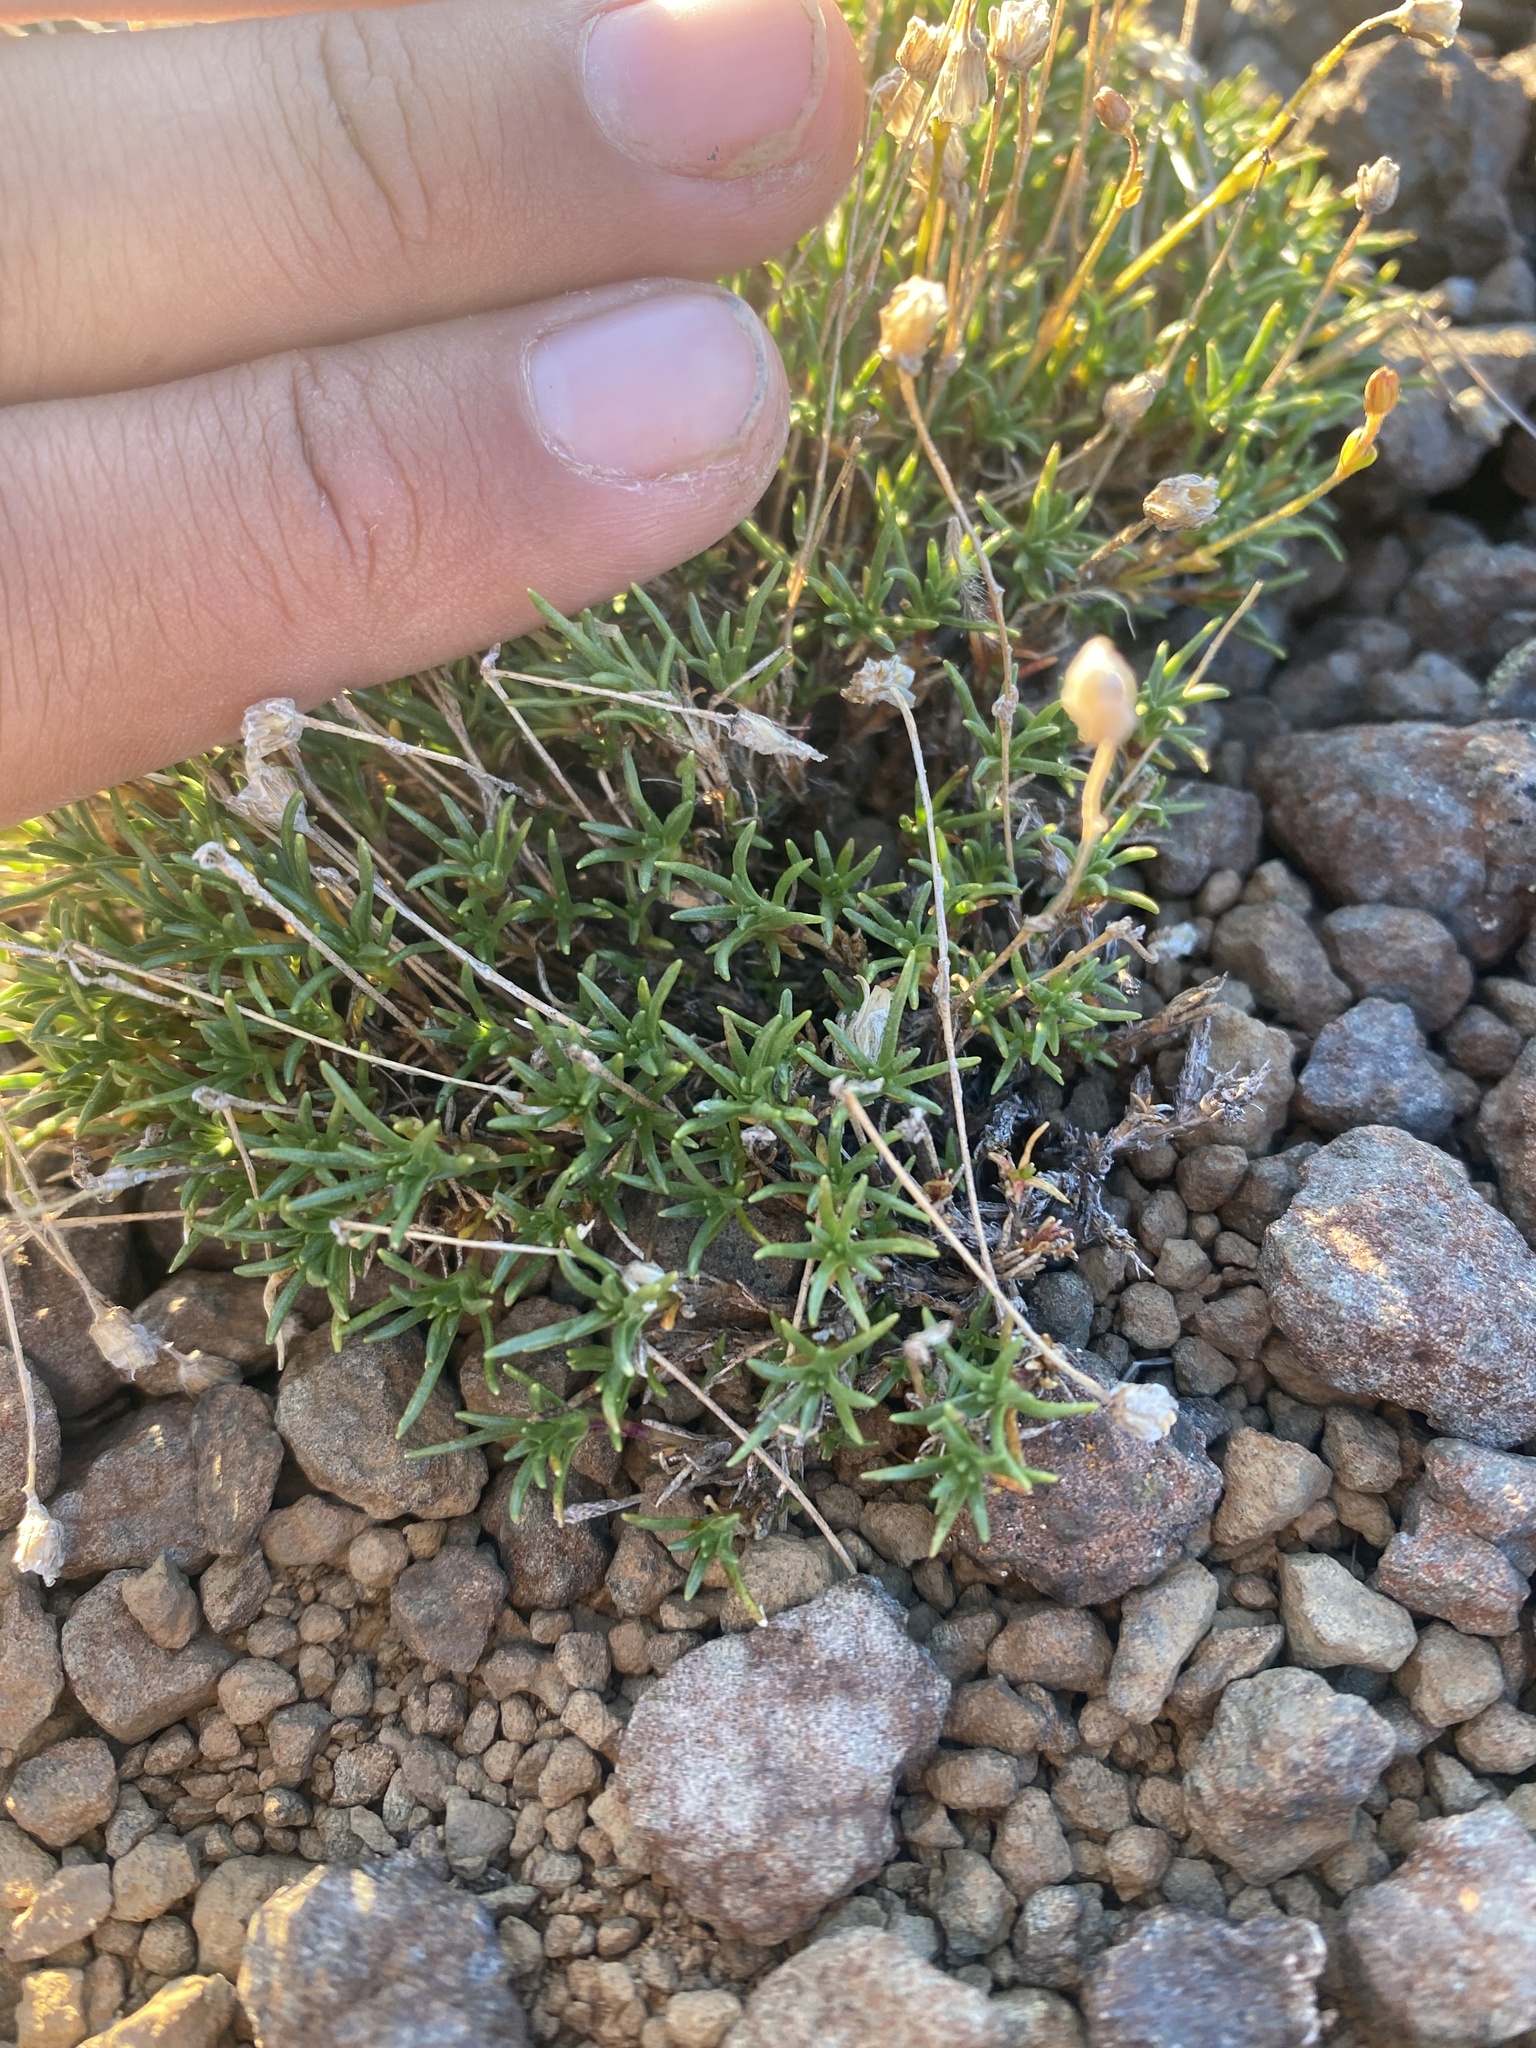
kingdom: Plantae
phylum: Tracheophyta
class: Magnoliopsida
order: Caryophyllales
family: Caryophyllaceae
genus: Cherleria
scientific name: Cherleria arctica
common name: Arctic sandwort
